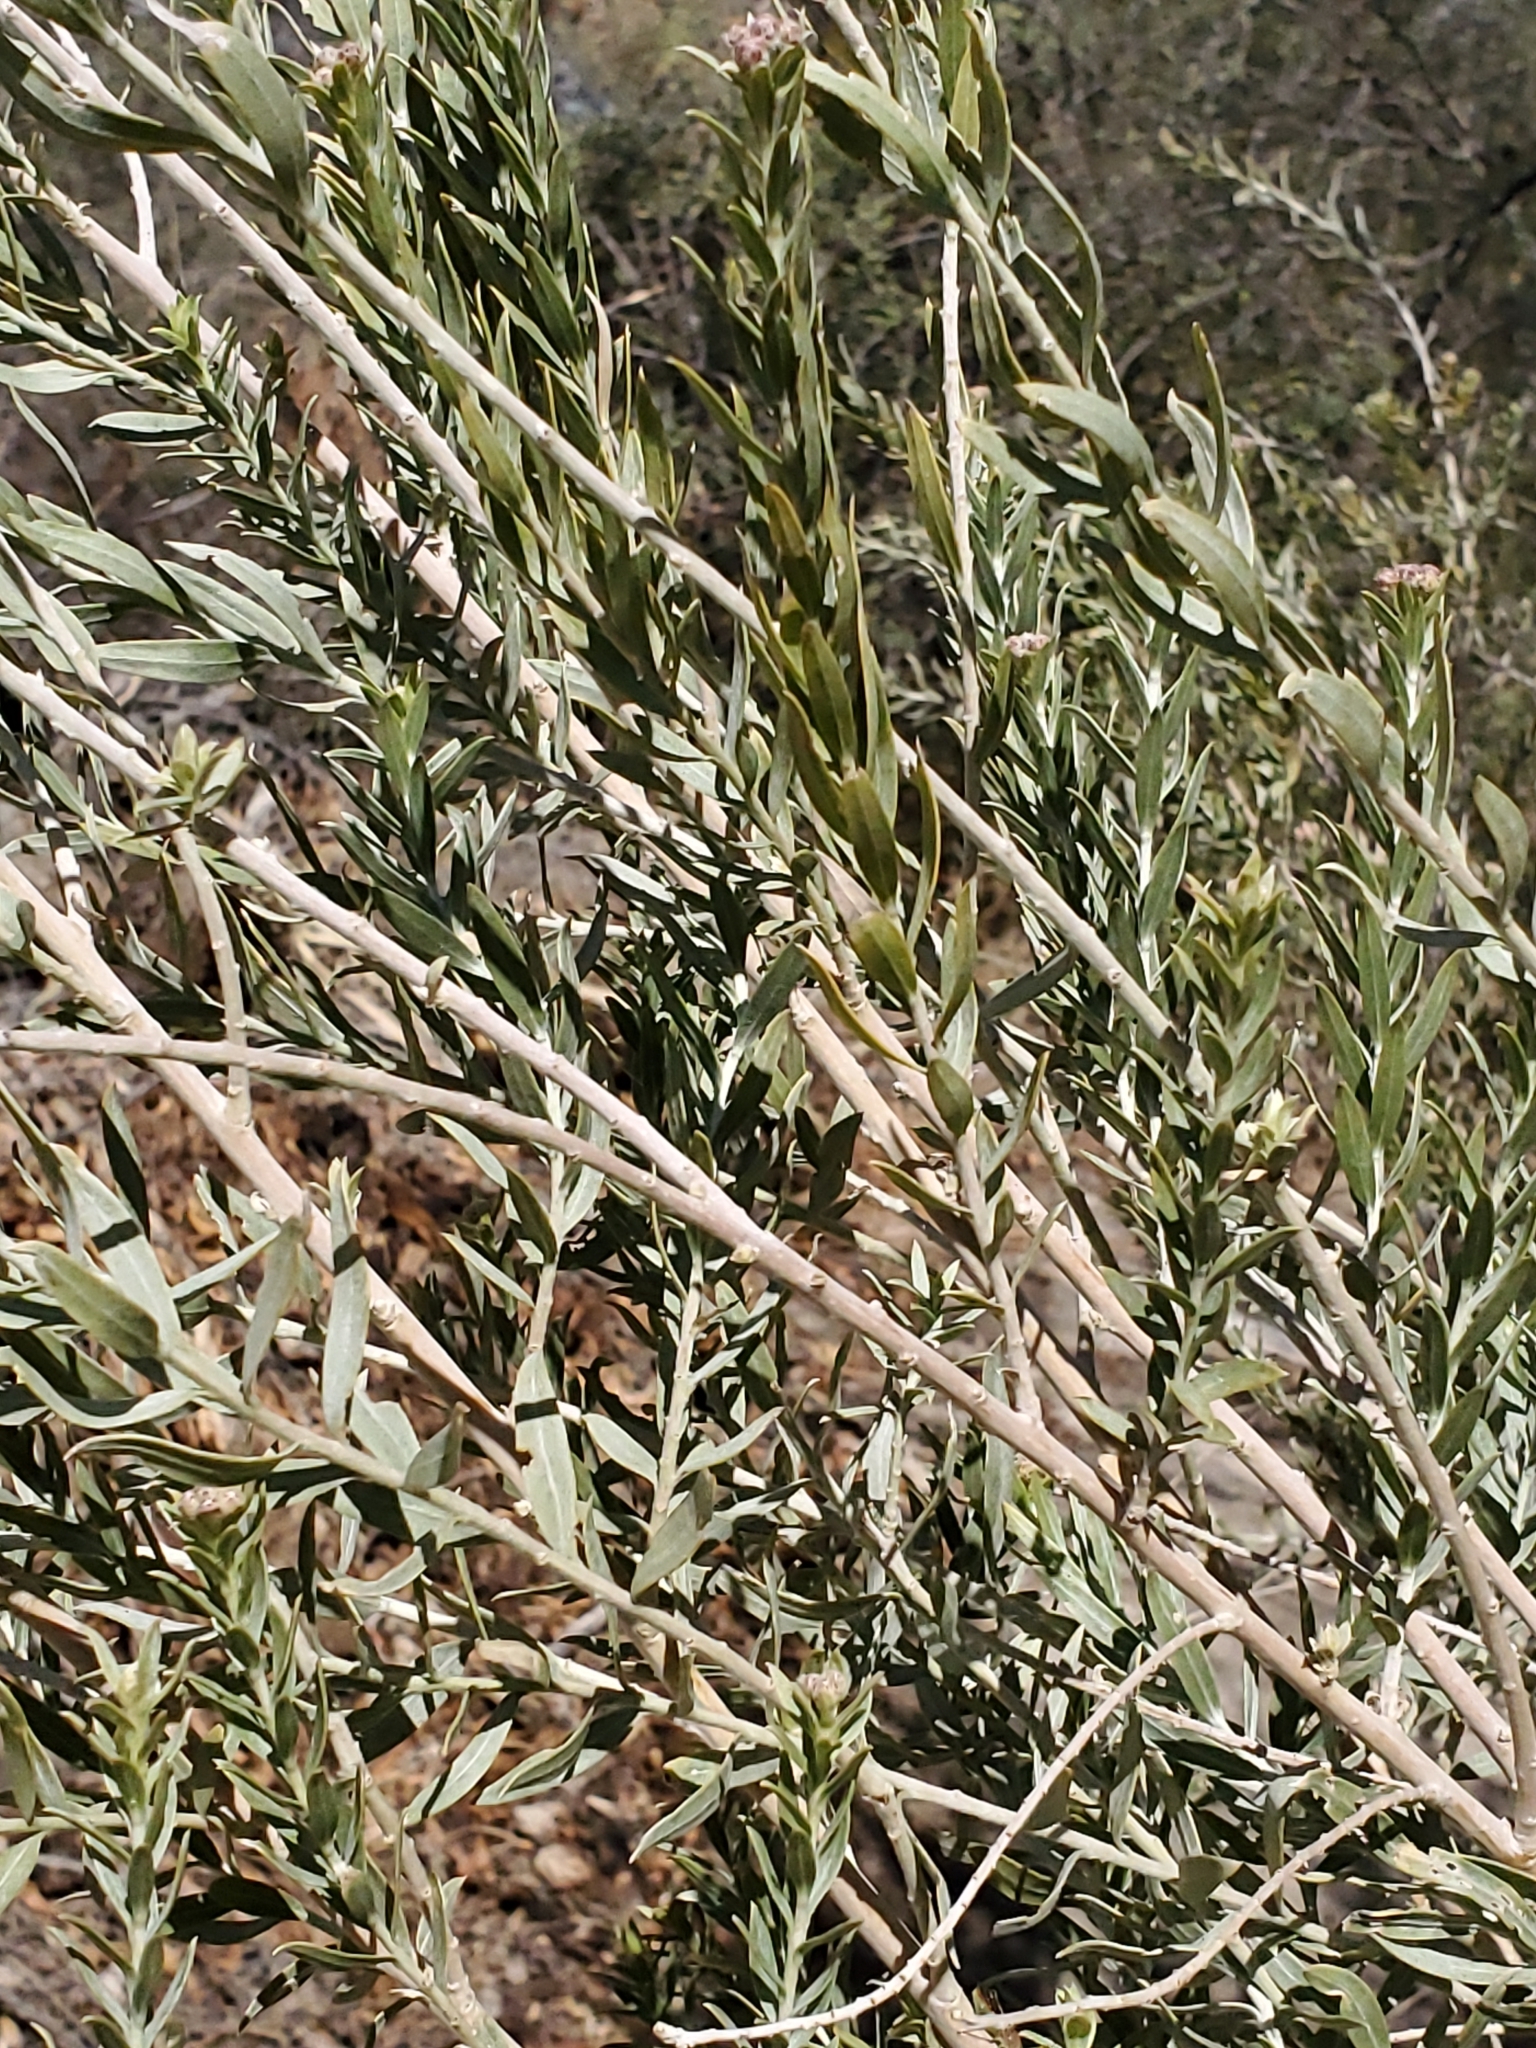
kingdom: Plantae
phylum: Tracheophyta
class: Magnoliopsida
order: Asterales
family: Asteraceae
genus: Pluchea
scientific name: Pluchea sericea
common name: Arrow-weed
